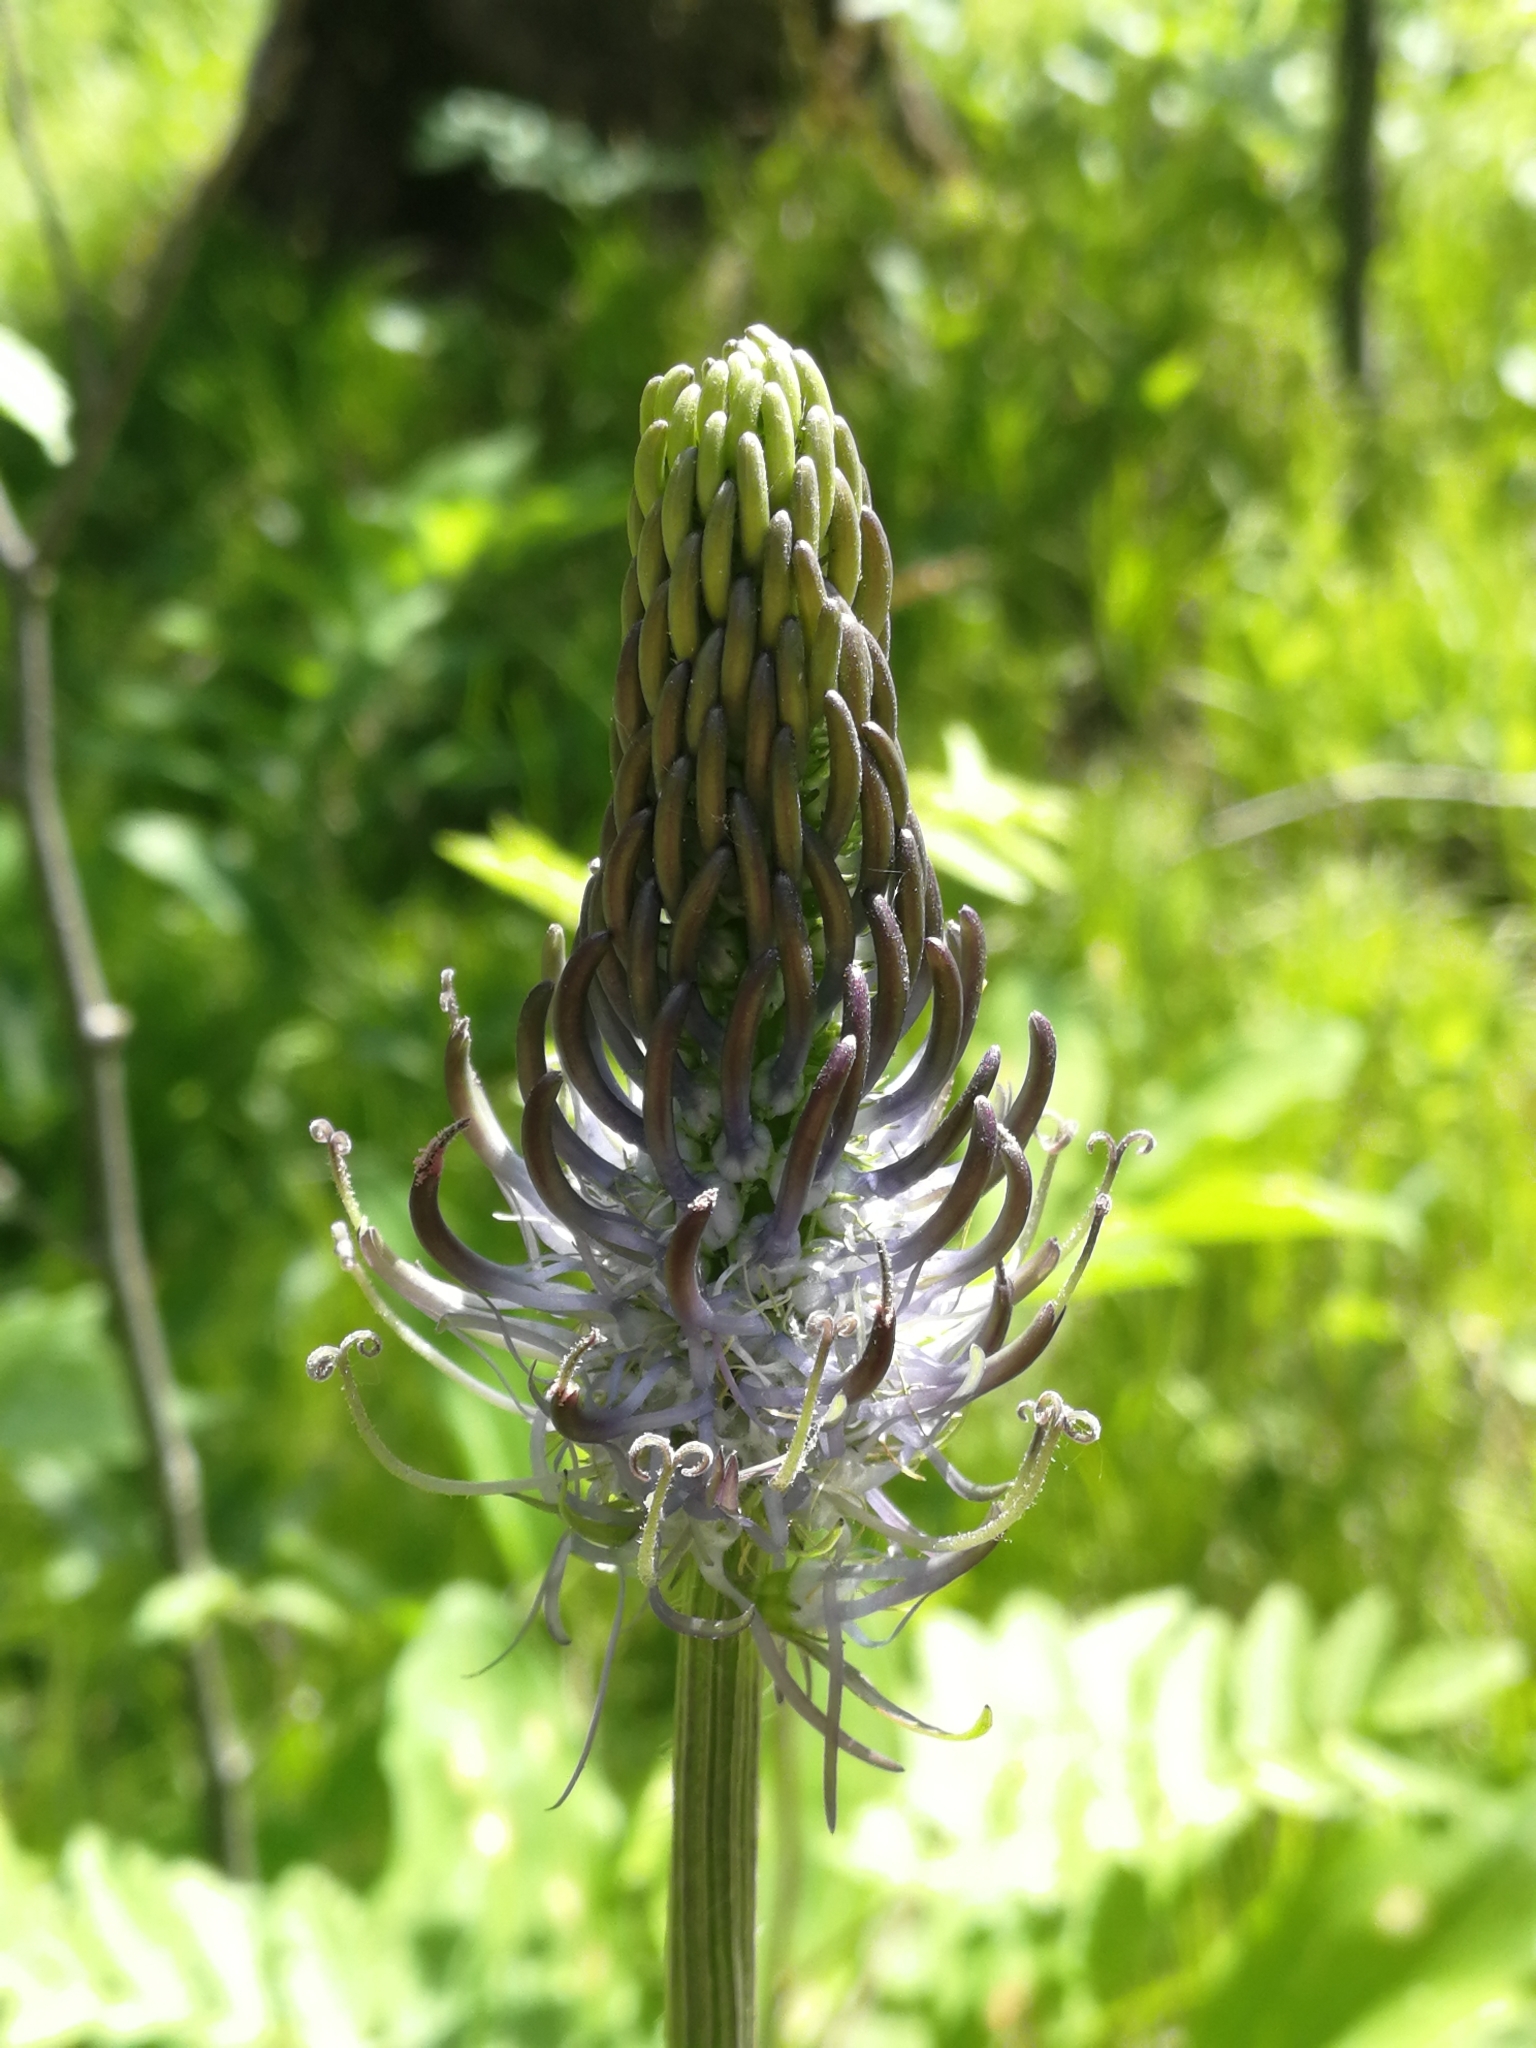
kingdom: Plantae
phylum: Tracheophyta
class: Magnoliopsida
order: Asterales
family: Campanulaceae
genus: Phyteuma
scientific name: Phyteuma spicatum
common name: Spiked rampion
